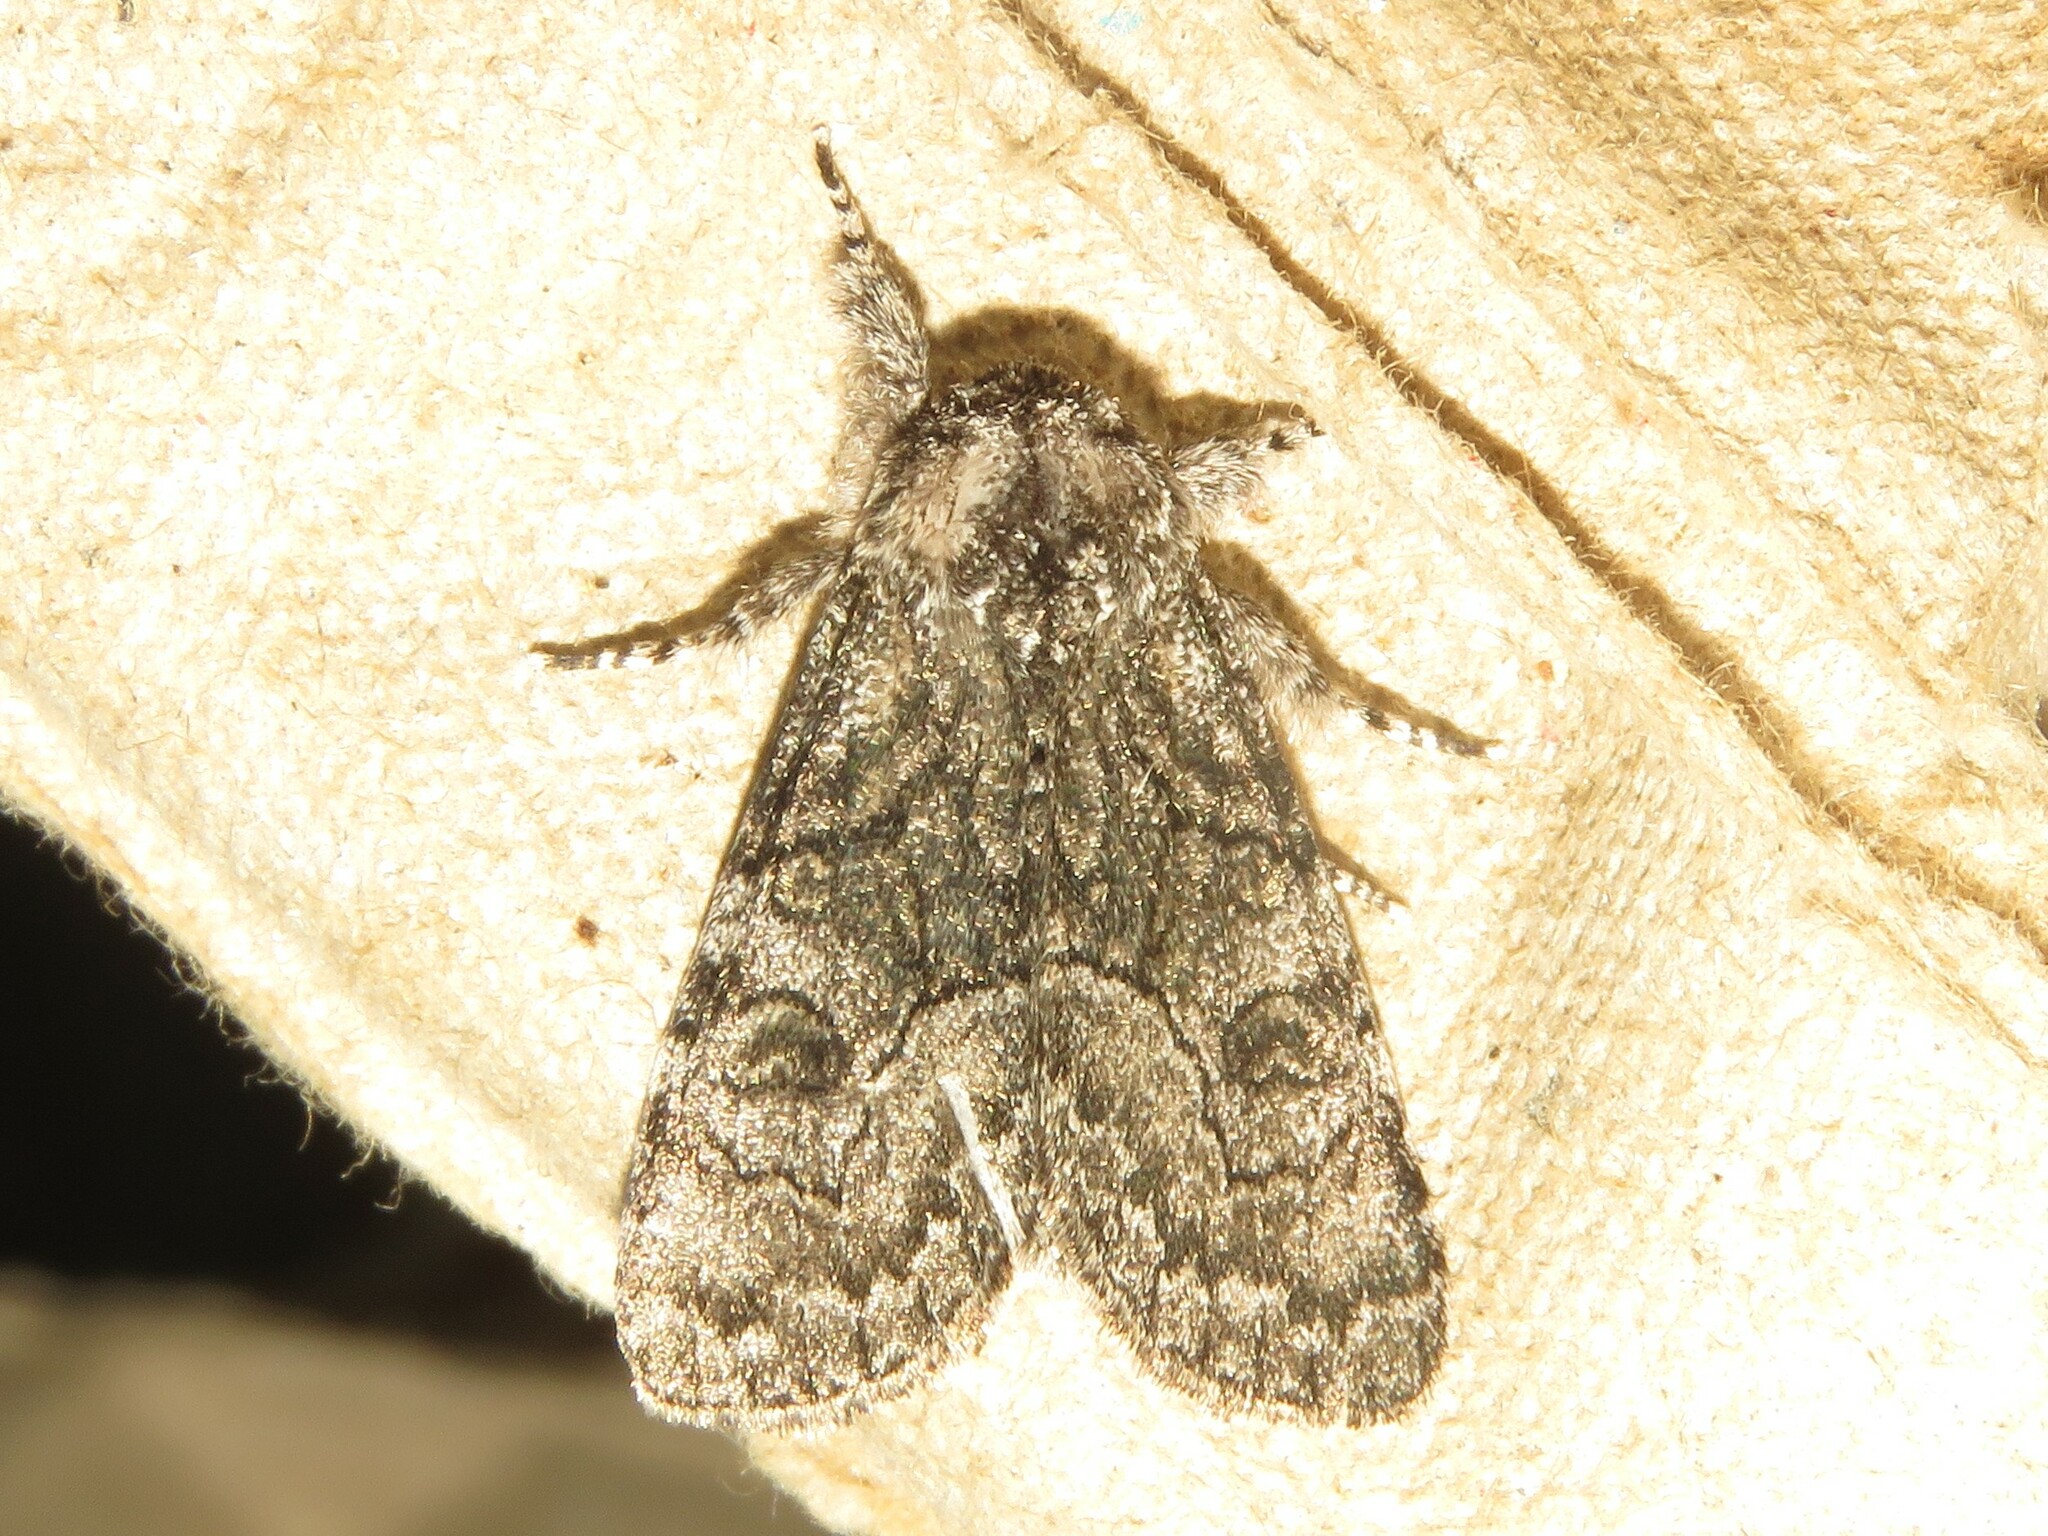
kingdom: Animalia
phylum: Arthropoda
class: Insecta
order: Lepidoptera
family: Noctuidae
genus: Raphia
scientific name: Raphia frater
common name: Brother
